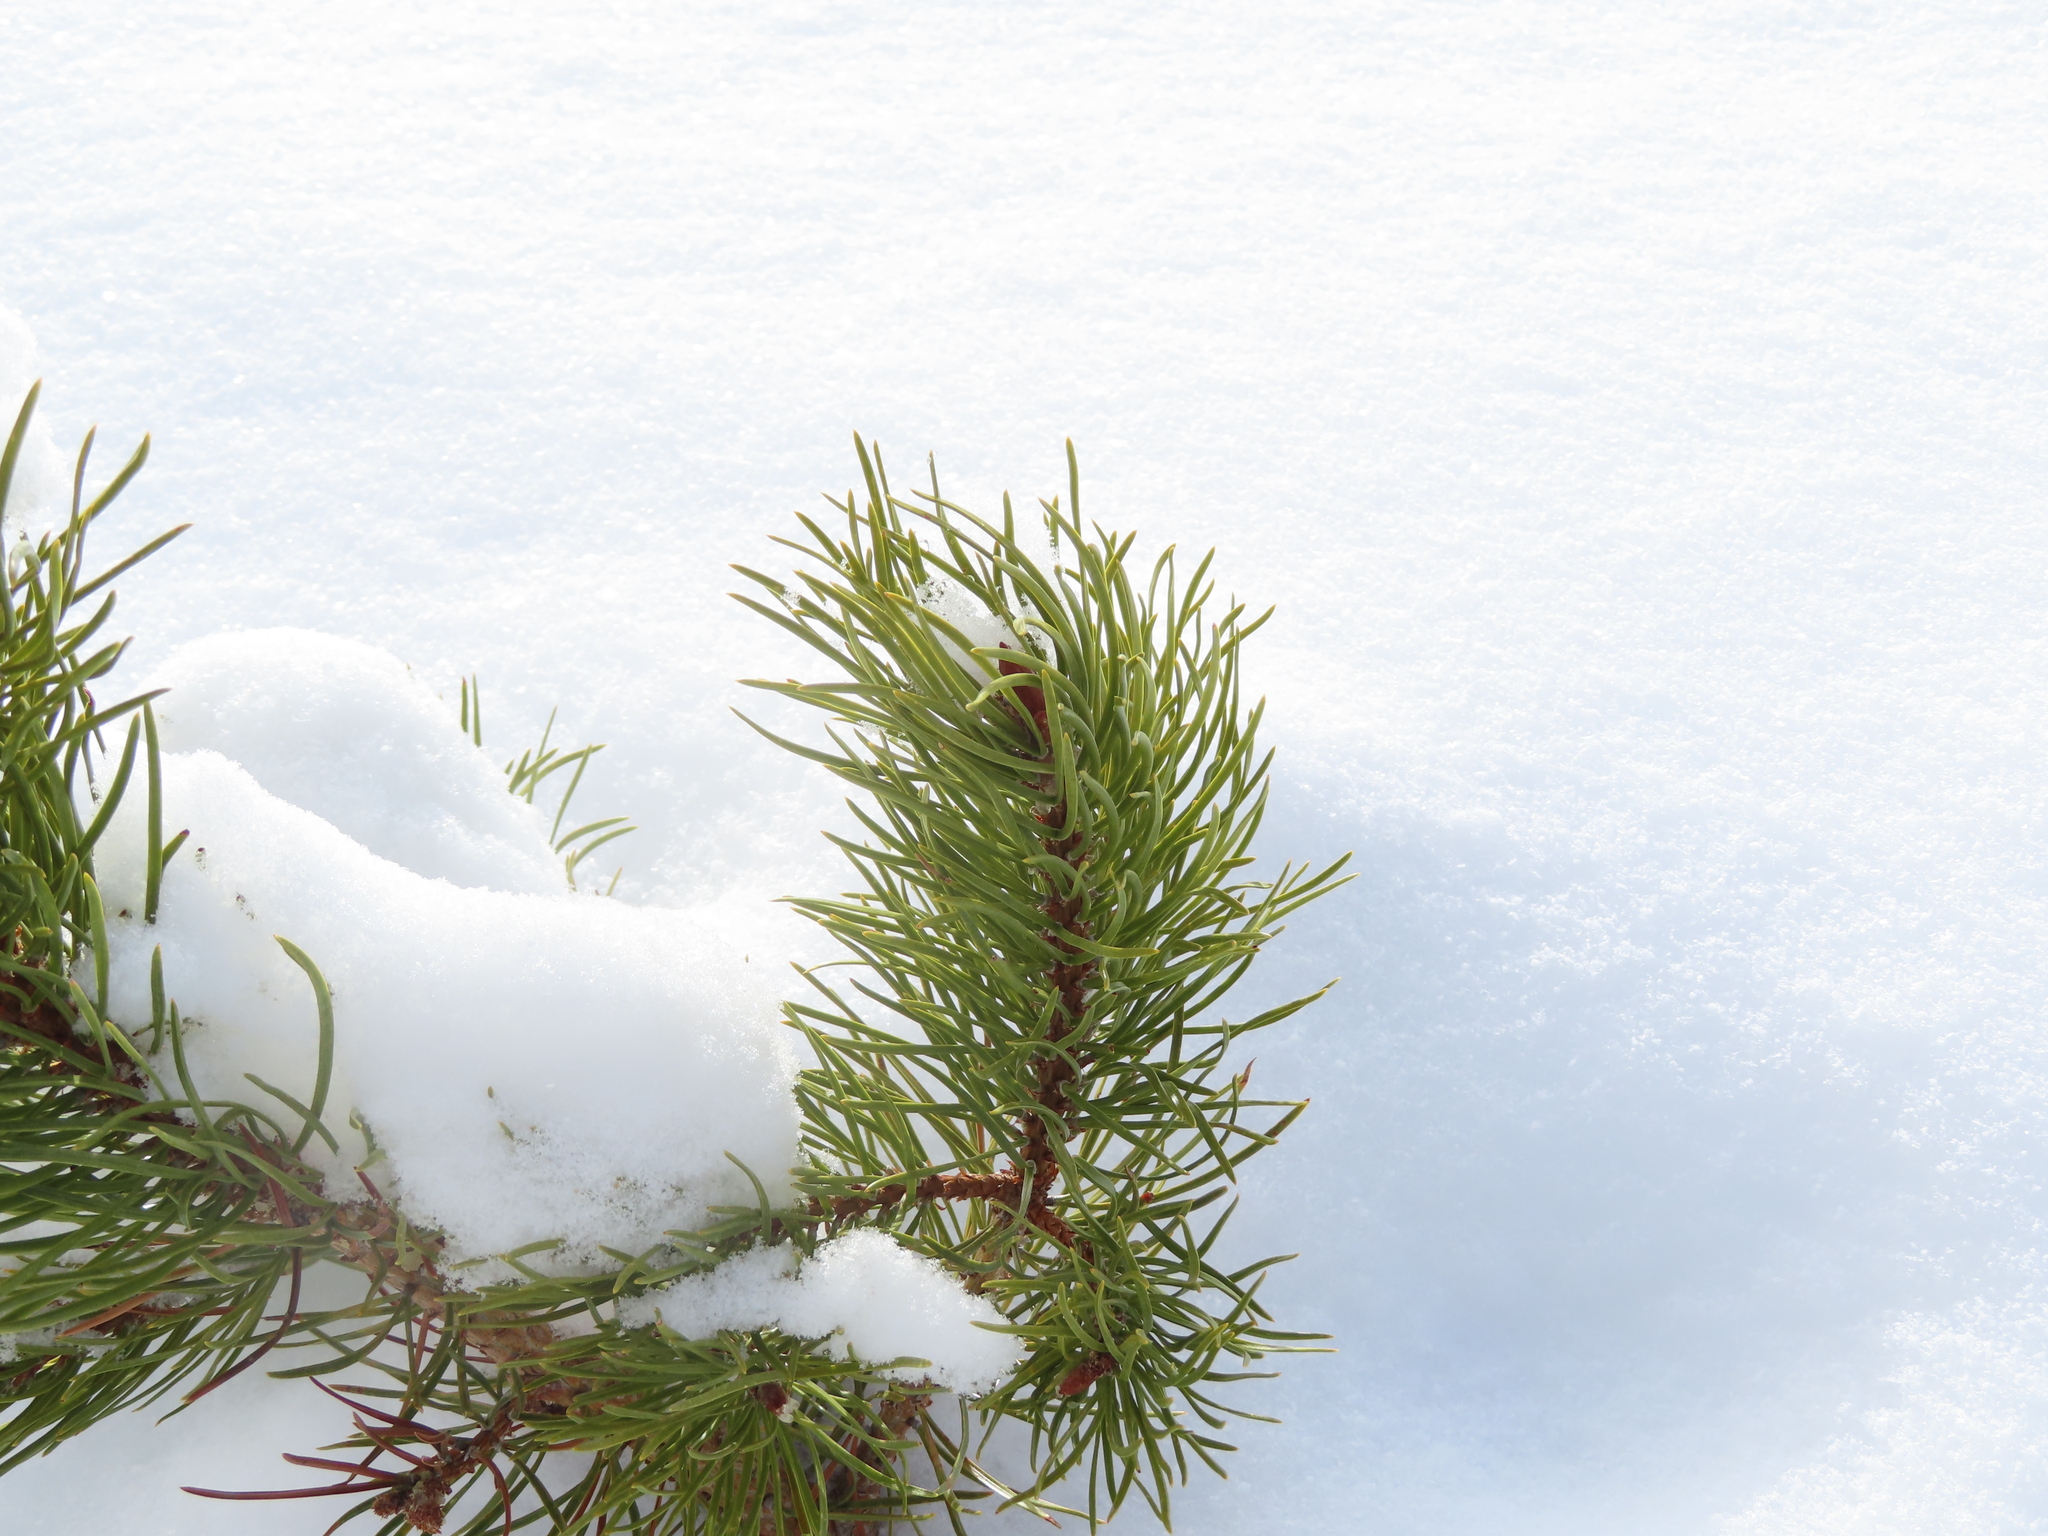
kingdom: Plantae
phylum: Tracheophyta
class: Pinopsida
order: Pinales
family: Pinaceae
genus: Pinus
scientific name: Pinus contorta
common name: Lodgepole pine
